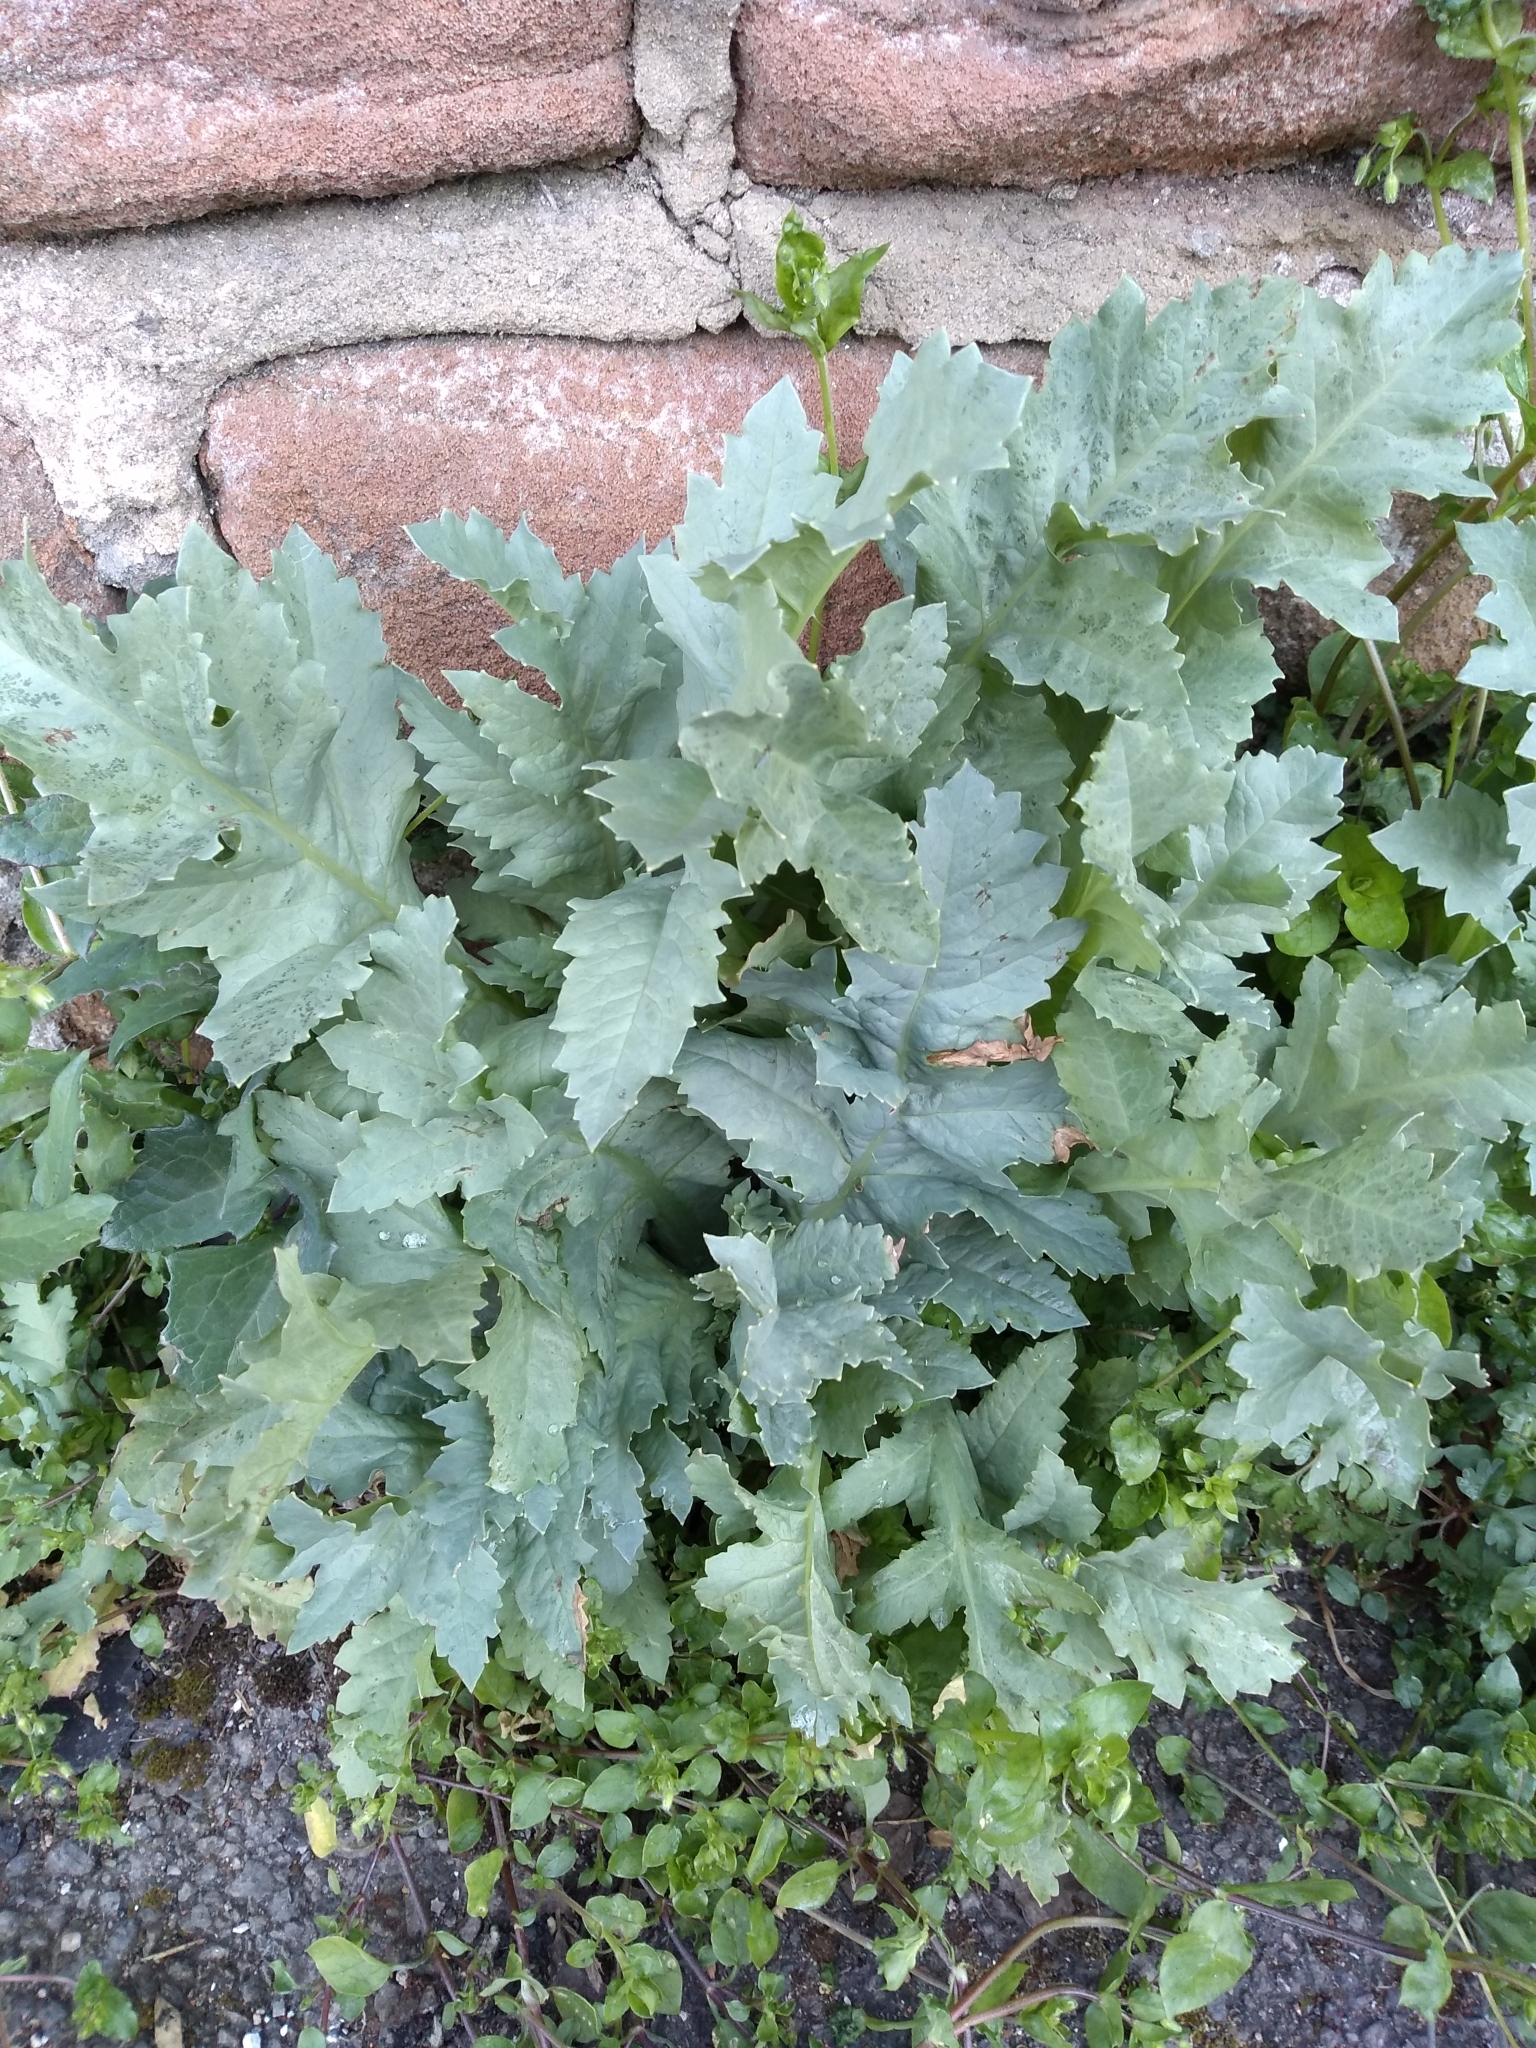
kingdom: Plantae
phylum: Tracheophyta
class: Magnoliopsida
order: Ranunculales
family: Papaveraceae
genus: Papaver
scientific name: Papaver somniferum
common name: Opium poppy
